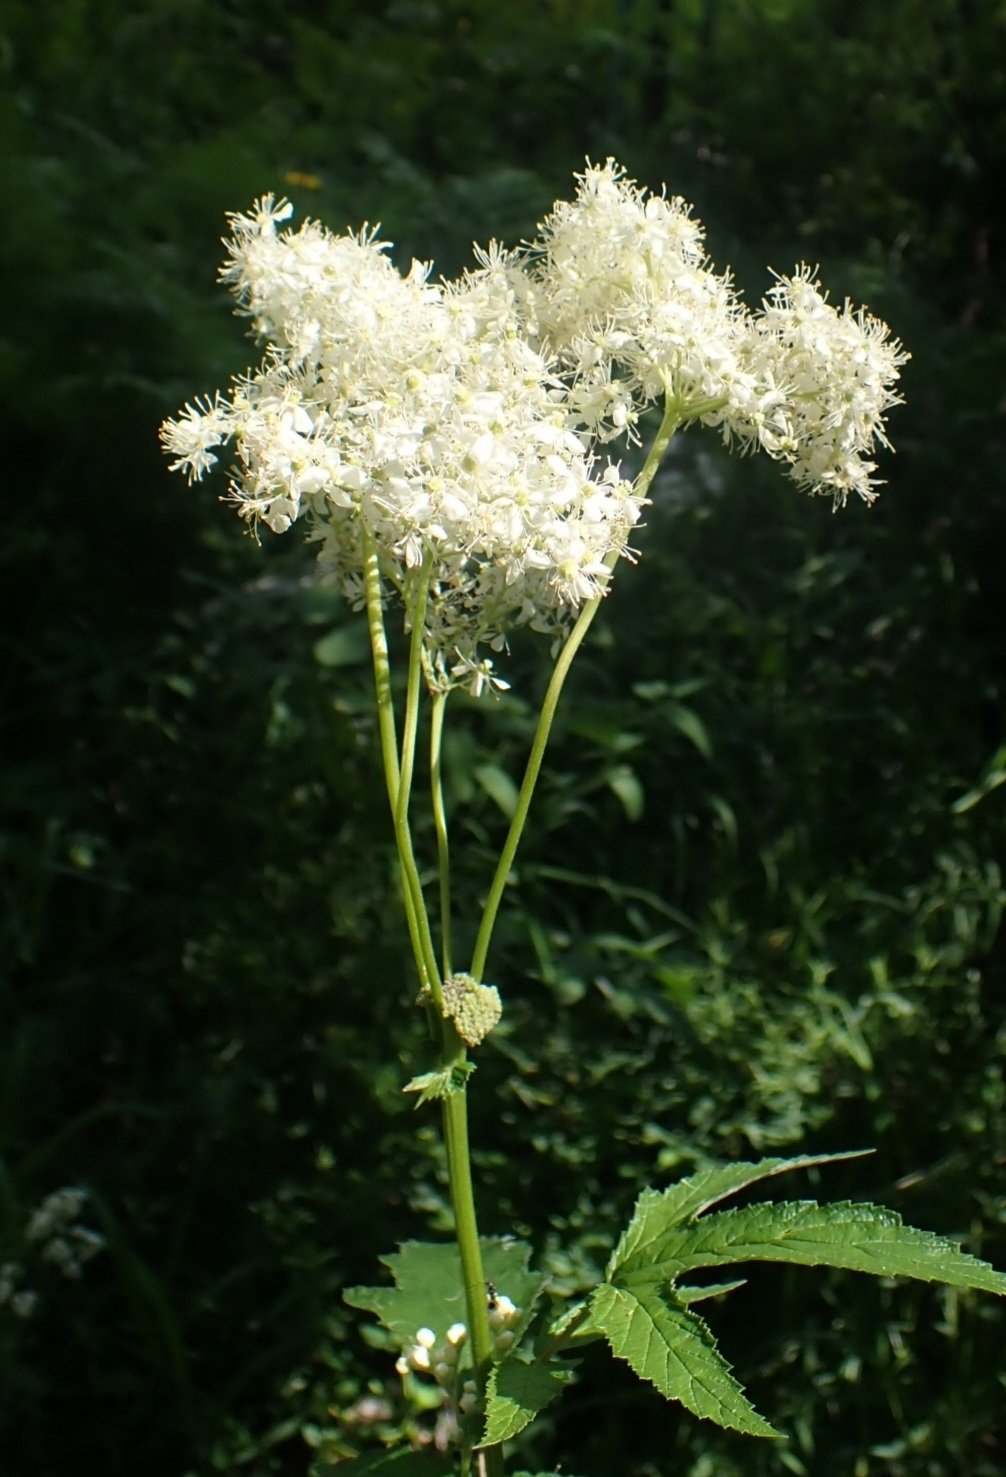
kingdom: Plantae
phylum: Tracheophyta
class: Magnoliopsida
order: Rosales
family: Rosaceae
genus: Filipendula
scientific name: Filipendula ulmaria
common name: Meadowsweet
